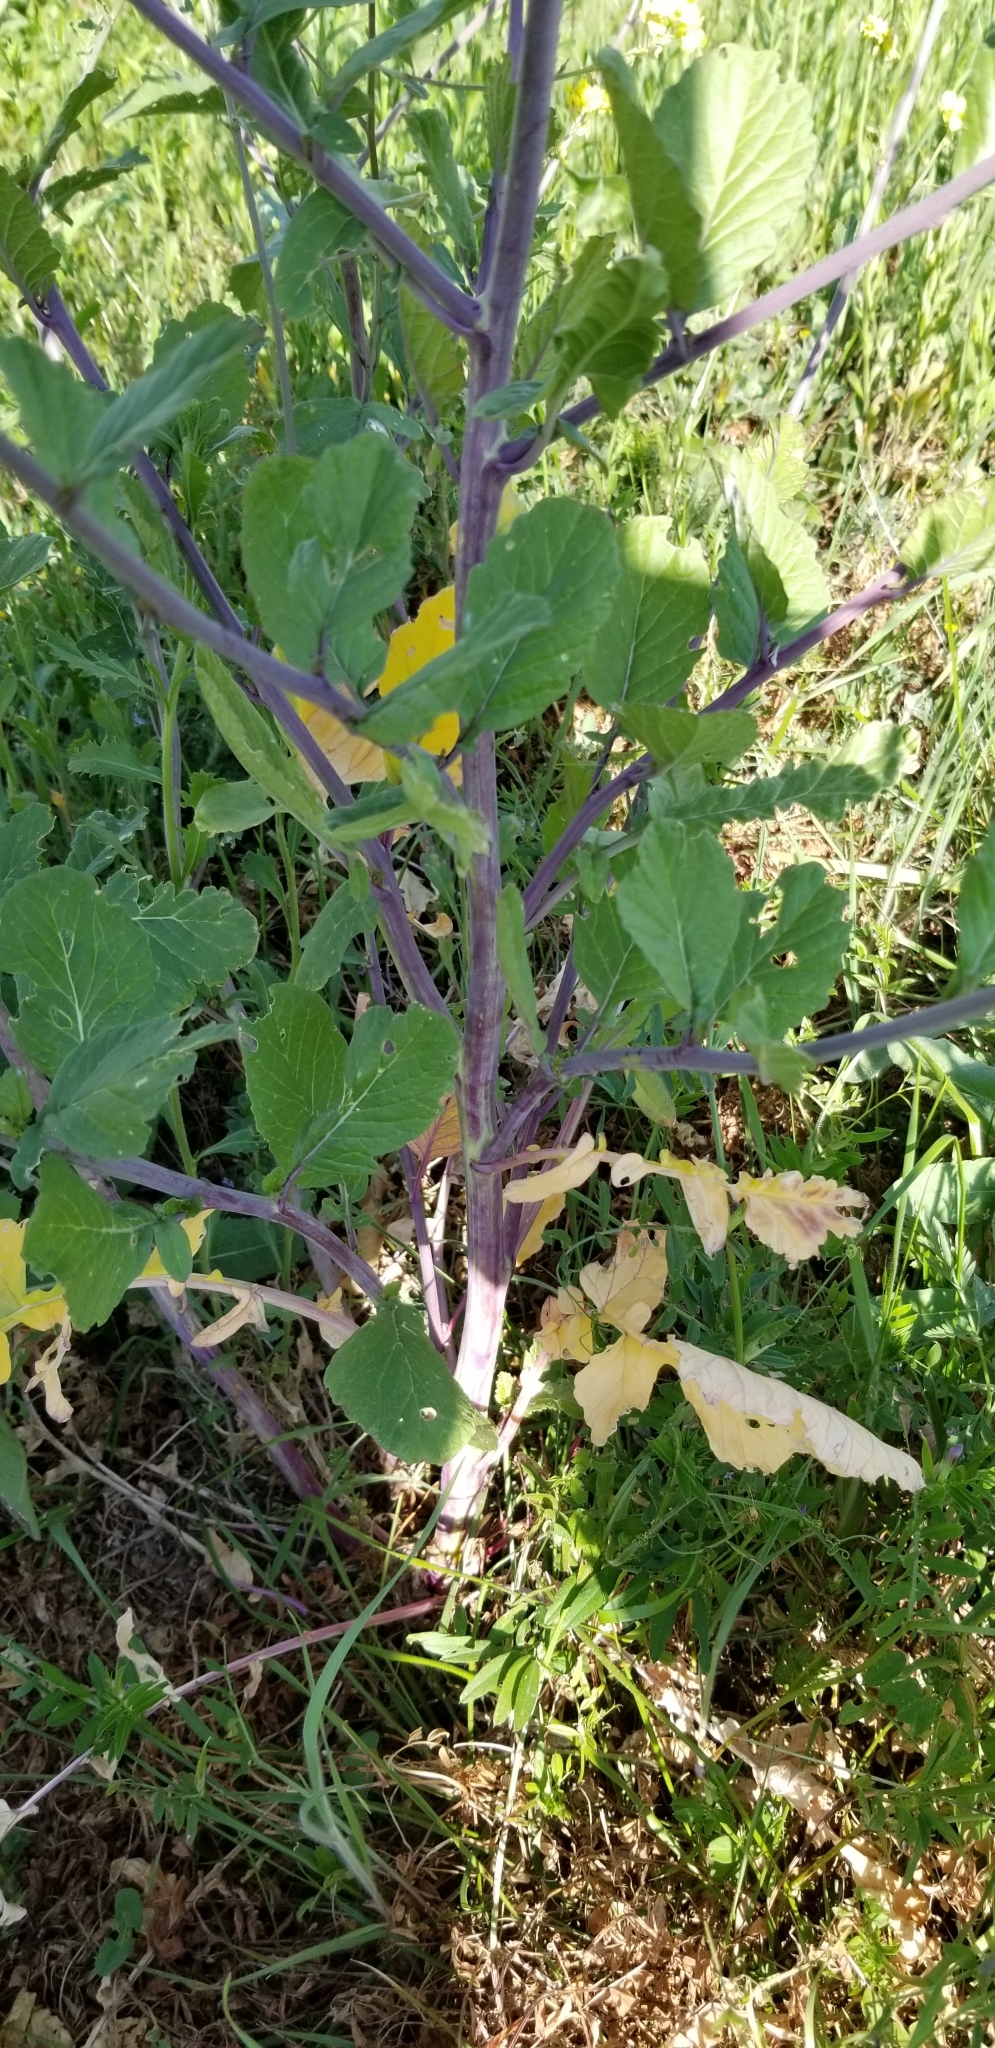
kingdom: Plantae
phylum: Tracheophyta
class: Magnoliopsida
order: Brassicales
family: Brassicaceae
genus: Rapistrum
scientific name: Rapistrum rugosum
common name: Annual bastardcabbage
